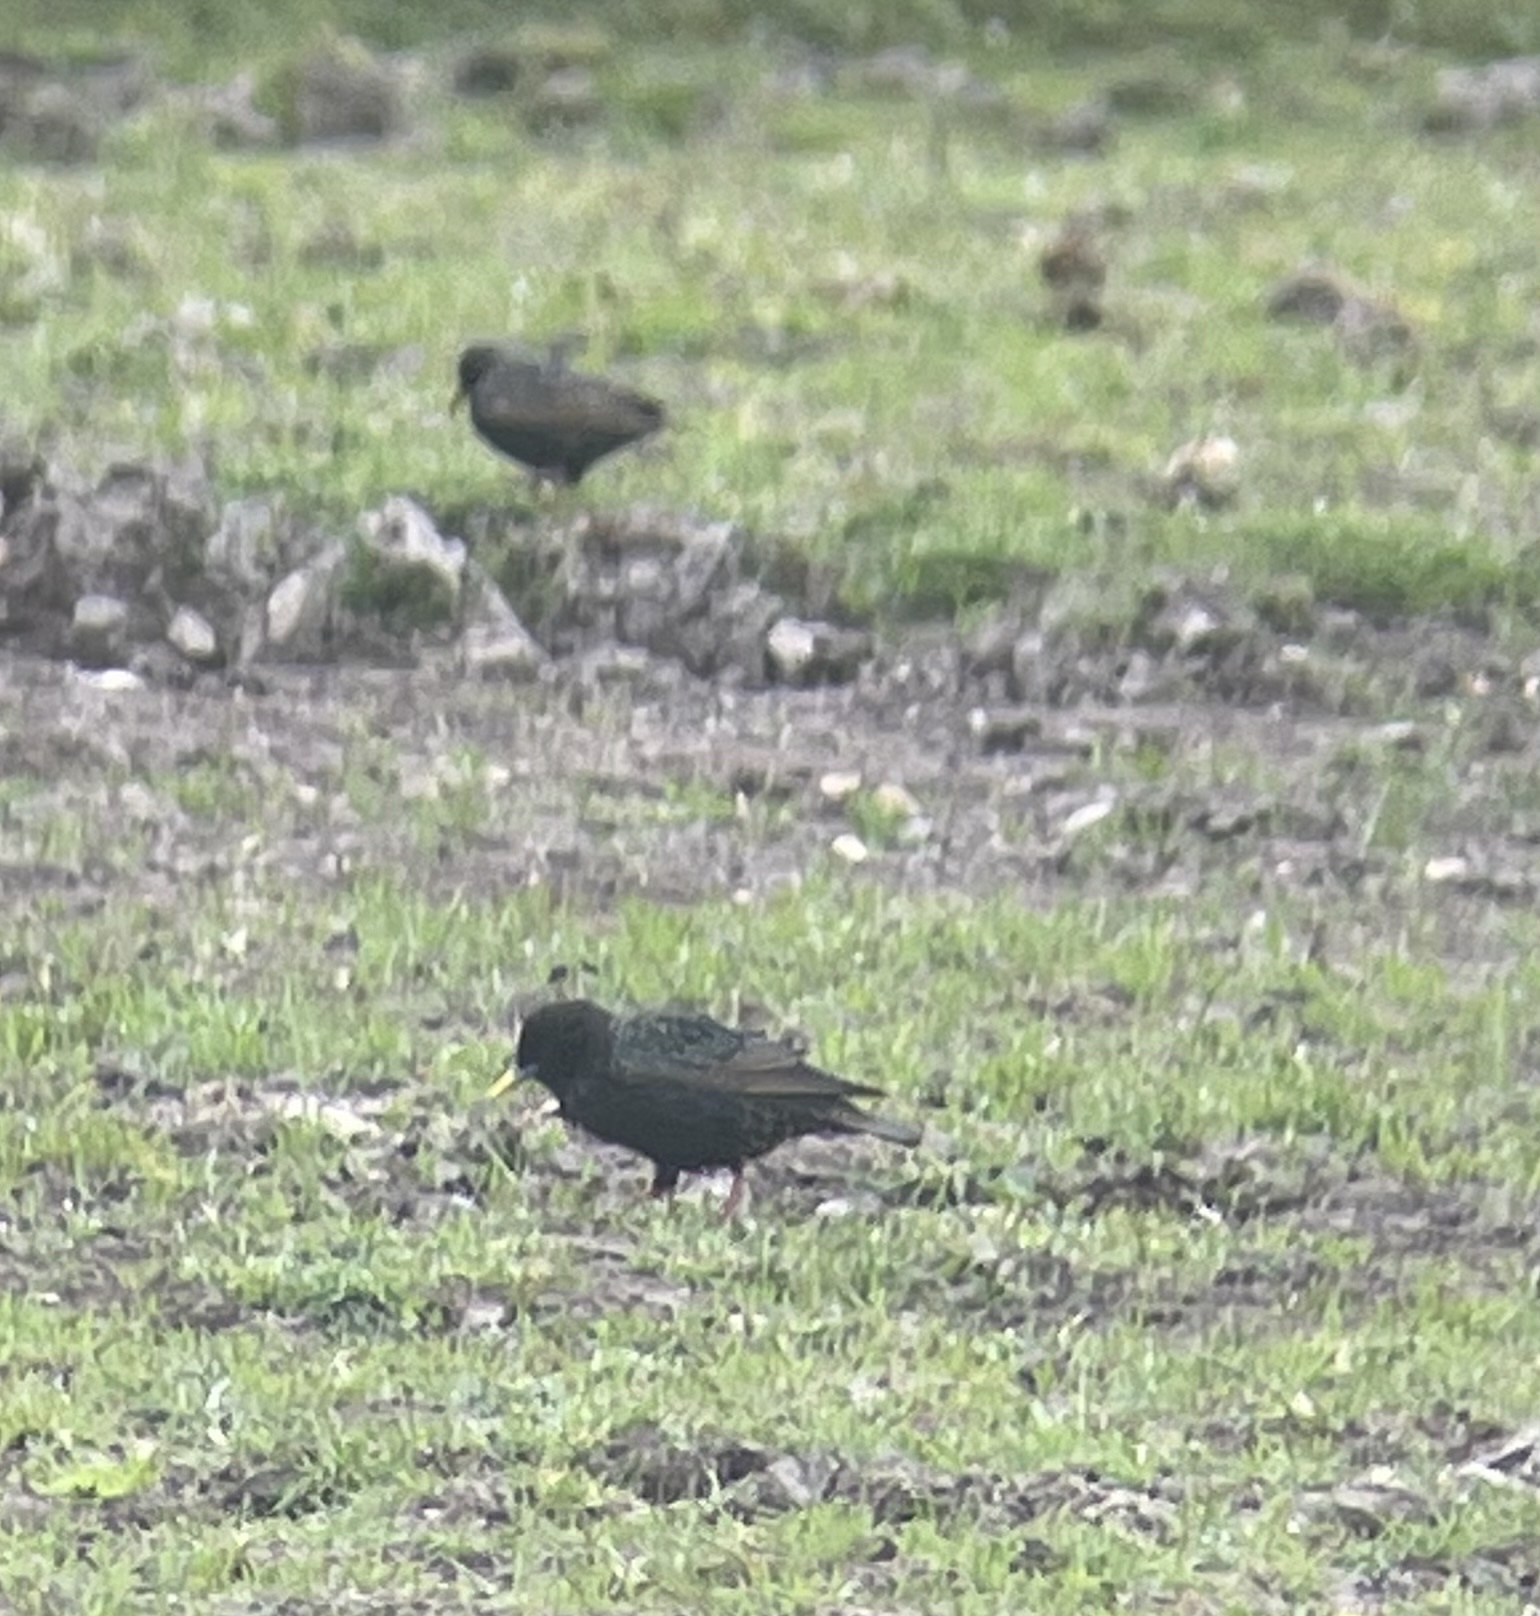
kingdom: Animalia
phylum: Chordata
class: Aves
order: Passeriformes
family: Sturnidae
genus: Sturnus
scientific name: Sturnus vulgaris
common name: Common starling
